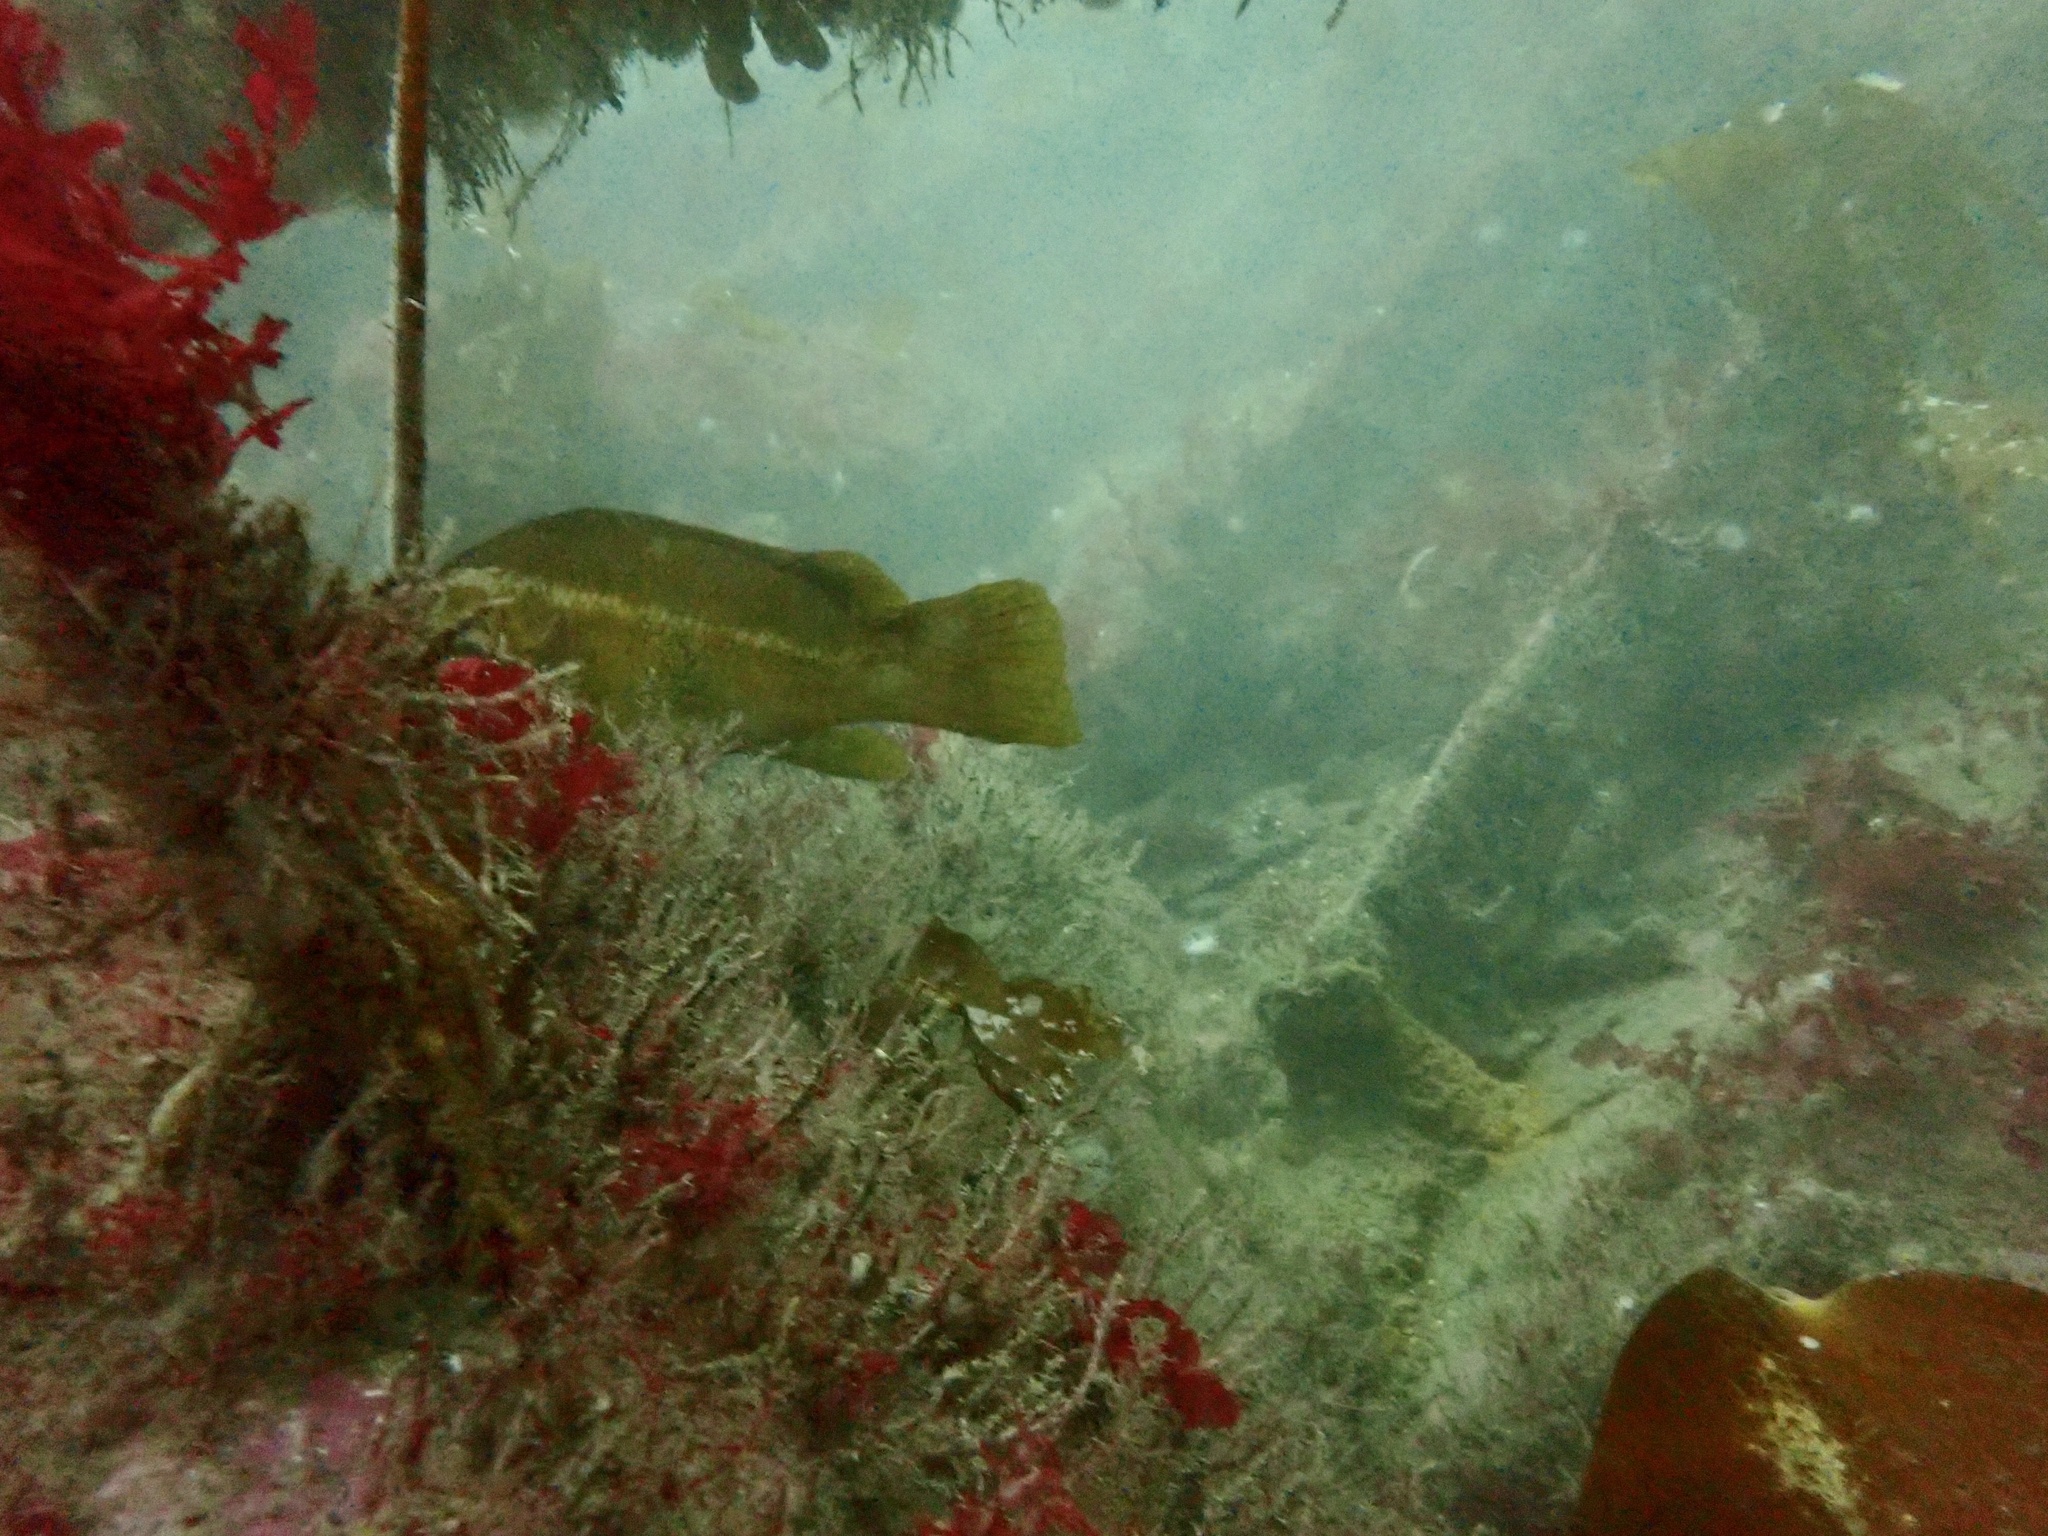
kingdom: Animalia
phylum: Chordata
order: Perciformes
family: Labridae
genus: Labrus
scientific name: Labrus bergylta
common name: Ballan wrasse
